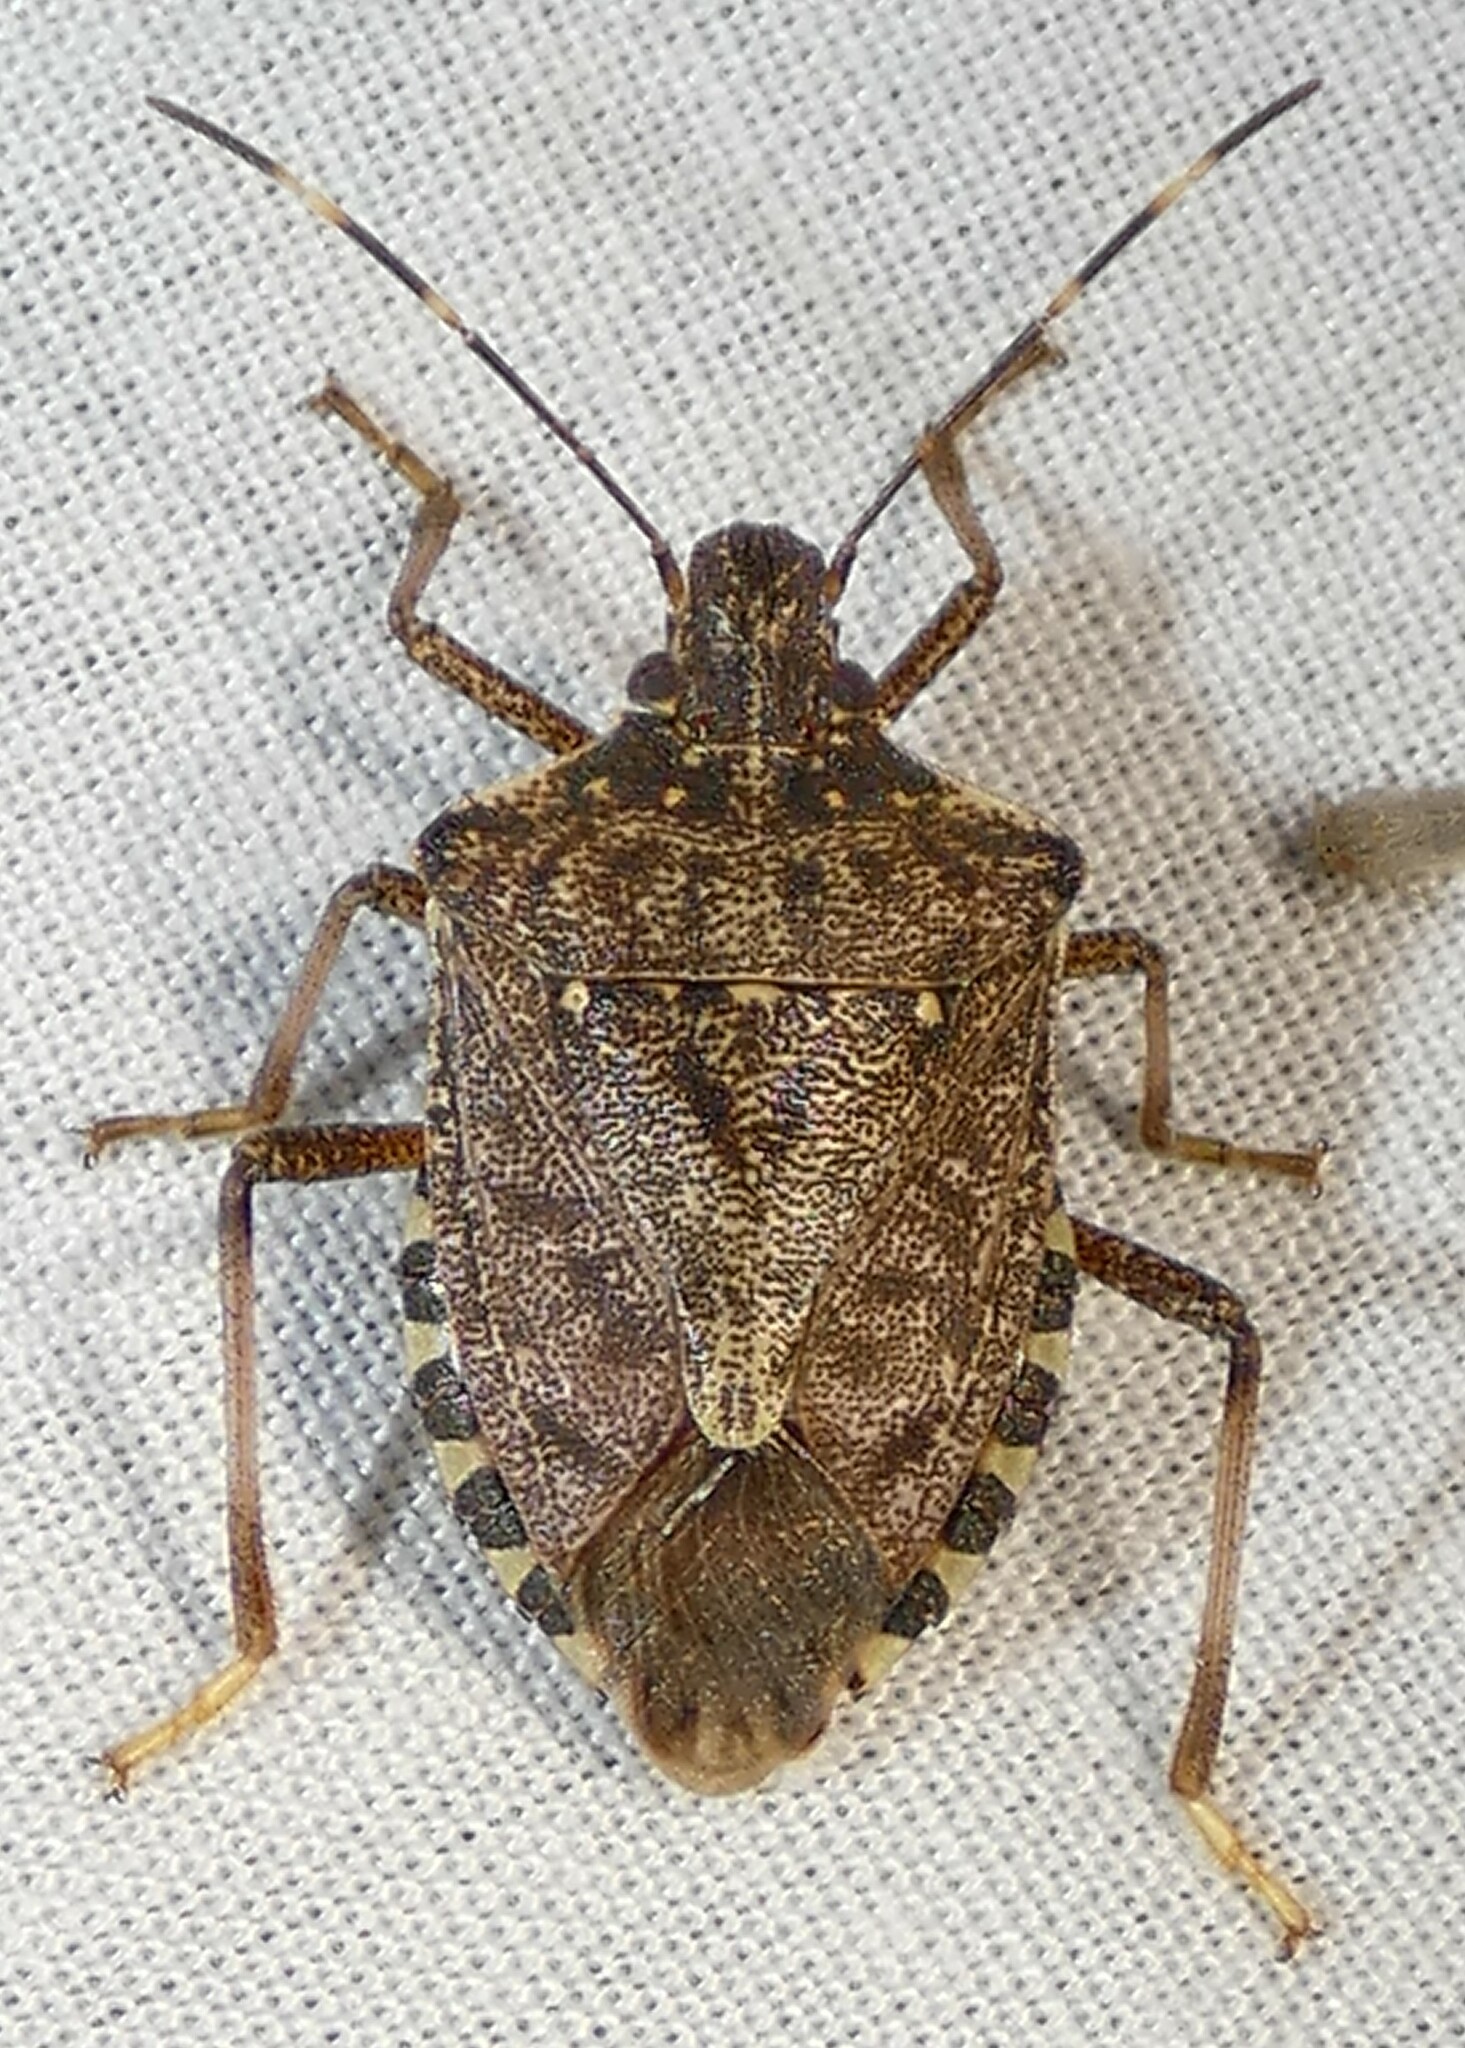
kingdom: Animalia
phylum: Arthropoda
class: Insecta
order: Hemiptera
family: Pentatomidae
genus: Halyomorpha
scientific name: Halyomorpha halys
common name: Brown marmorated stink bug
